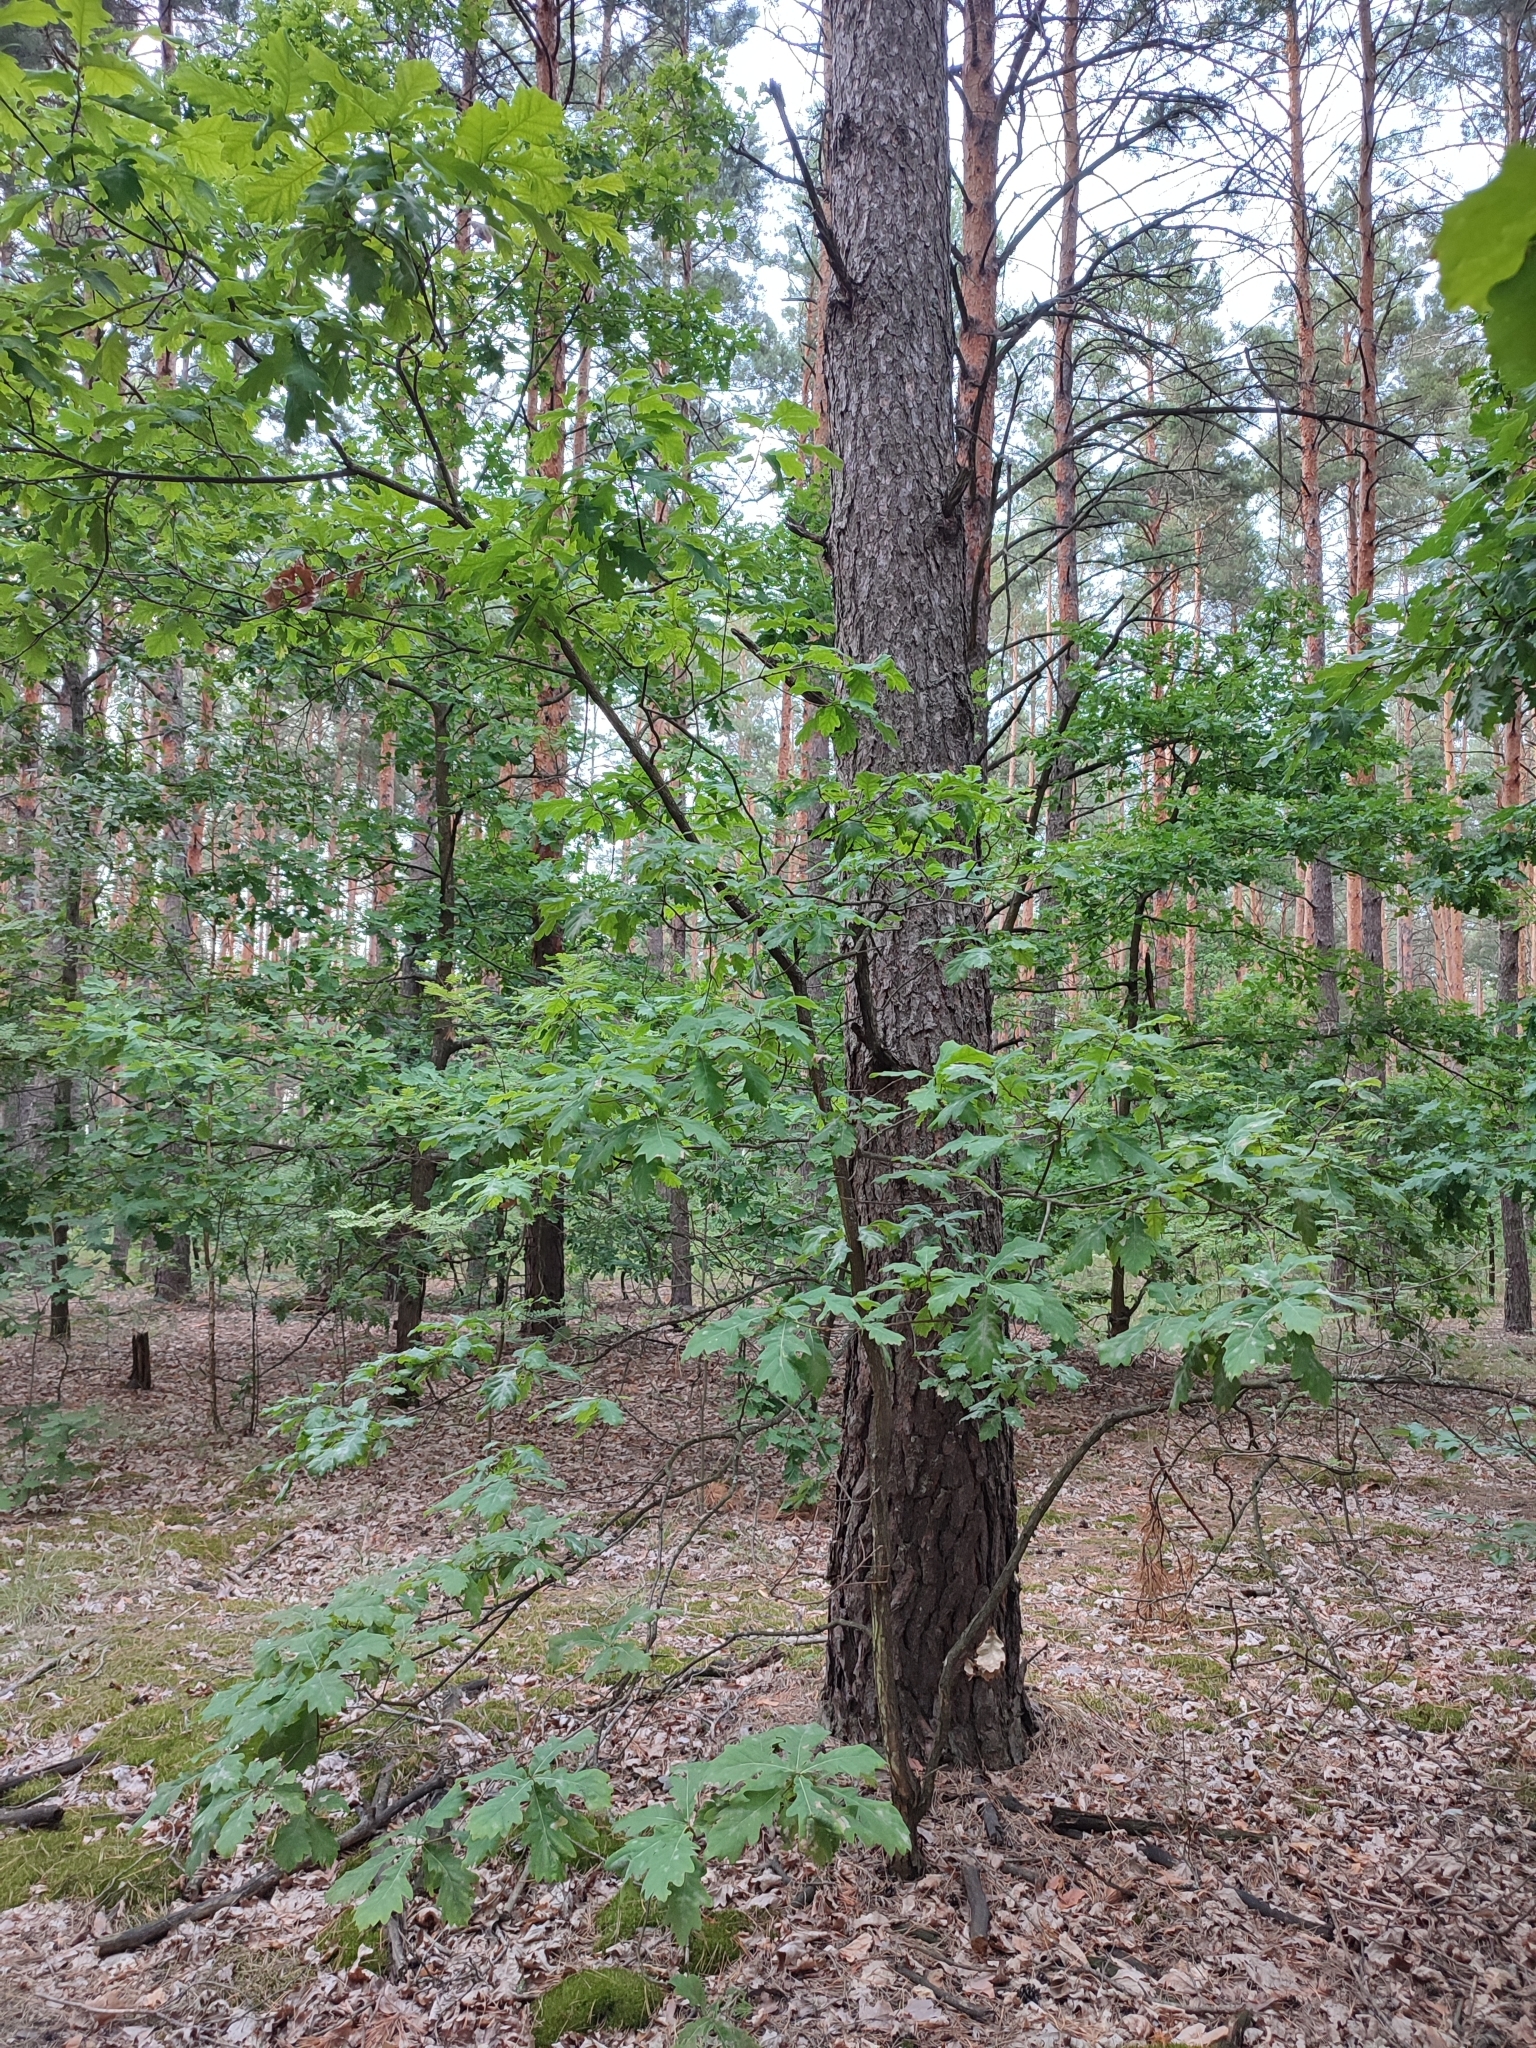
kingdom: Plantae
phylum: Tracheophyta
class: Magnoliopsida
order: Fagales
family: Fagaceae
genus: Quercus
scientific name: Quercus robur
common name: Pedunculate oak
